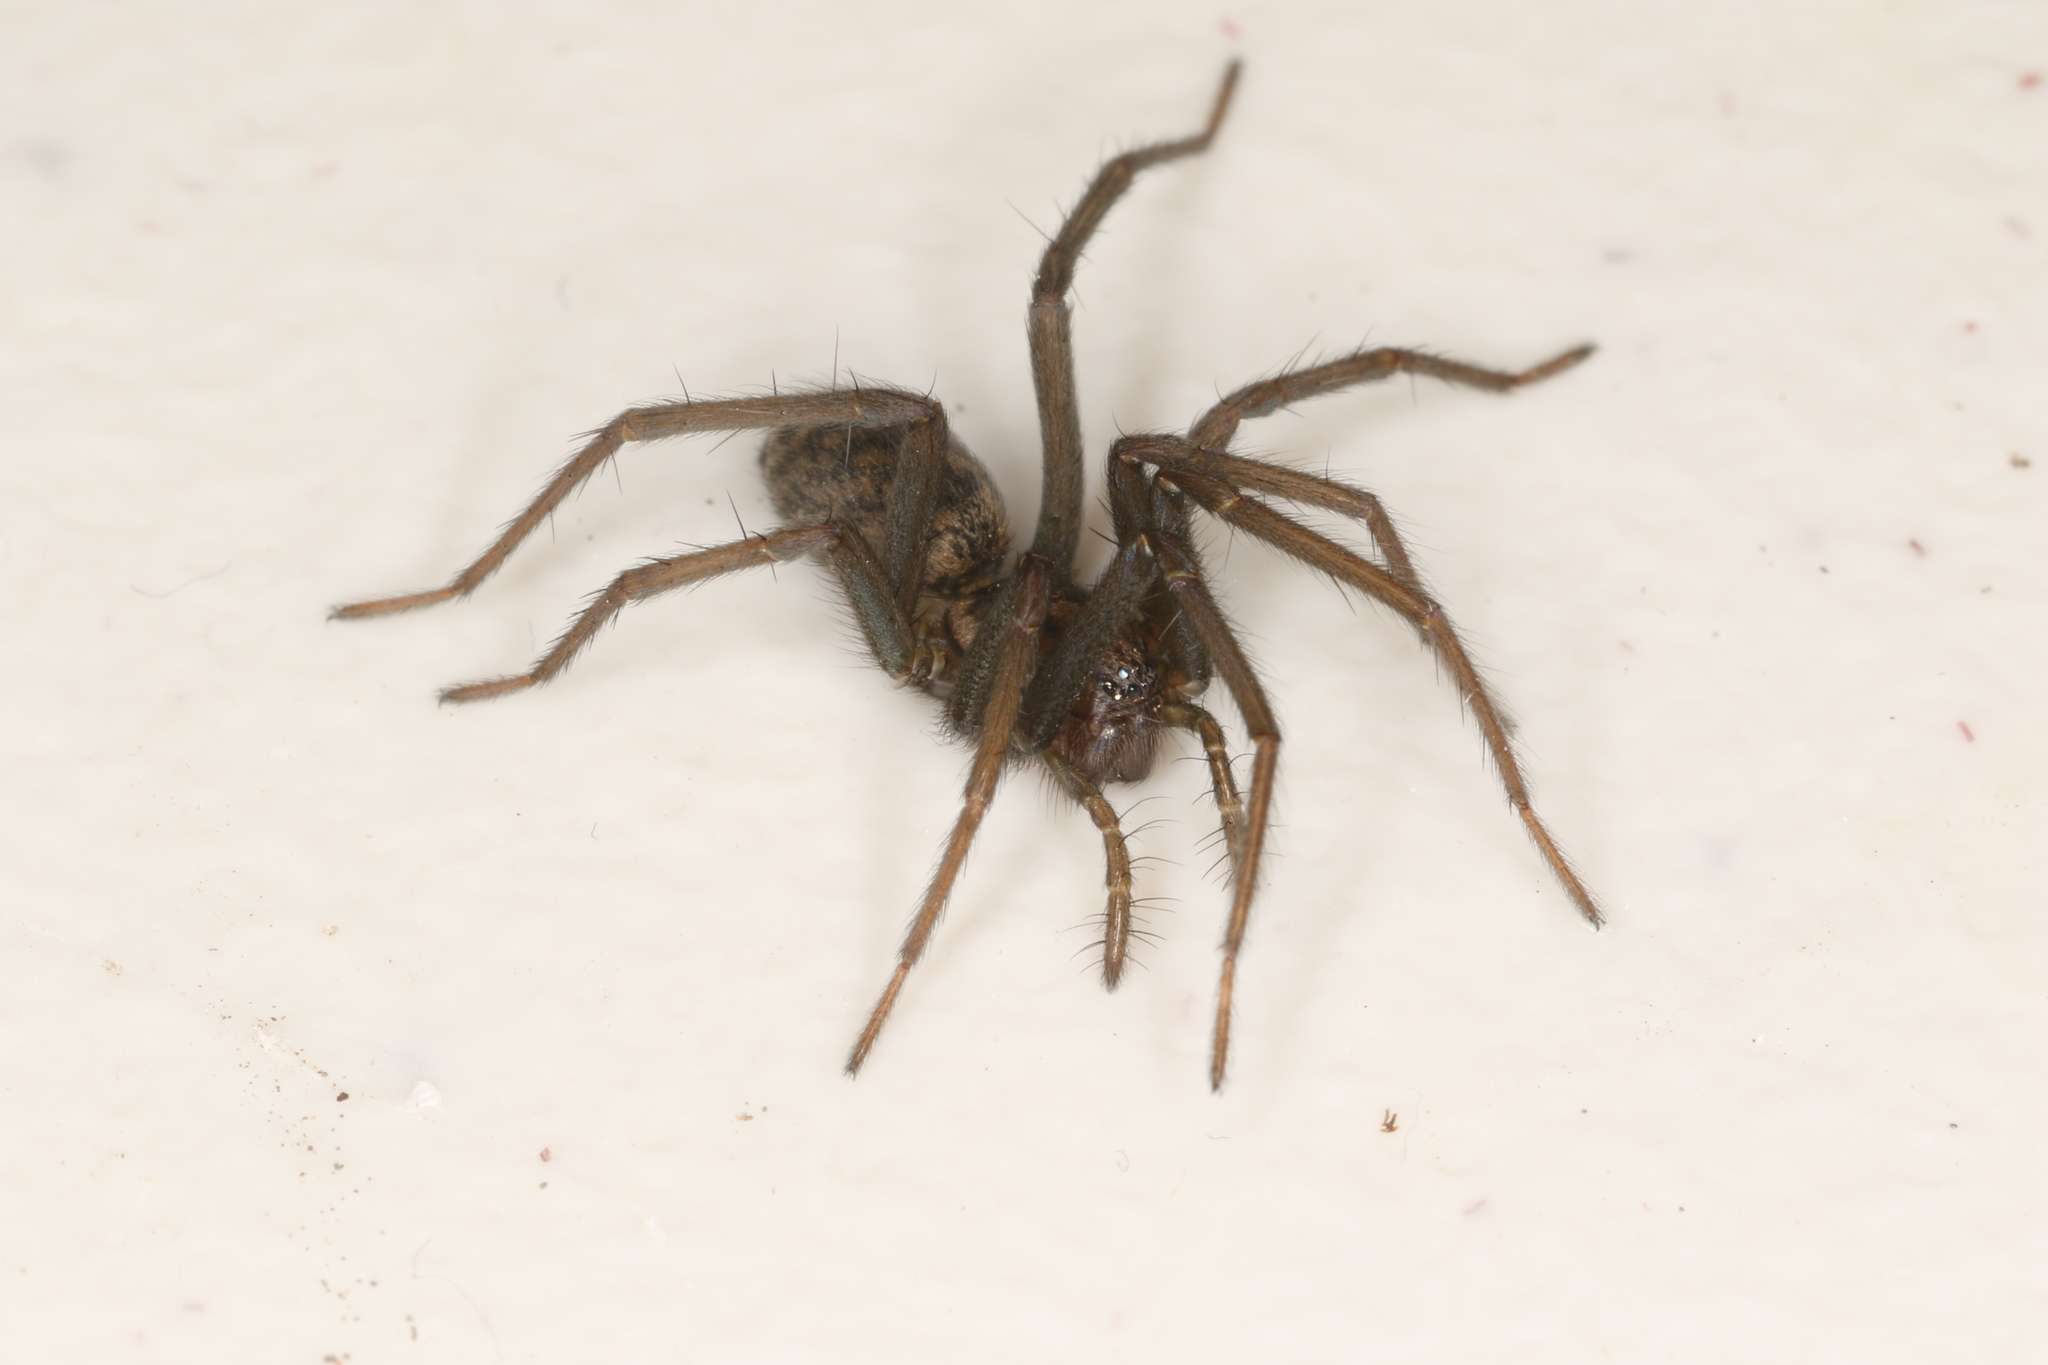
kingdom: Animalia
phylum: Arthropoda
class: Arachnida
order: Araneae
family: Agelenidae
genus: Eratigena
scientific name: Eratigena atrica
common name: Giant house spider
